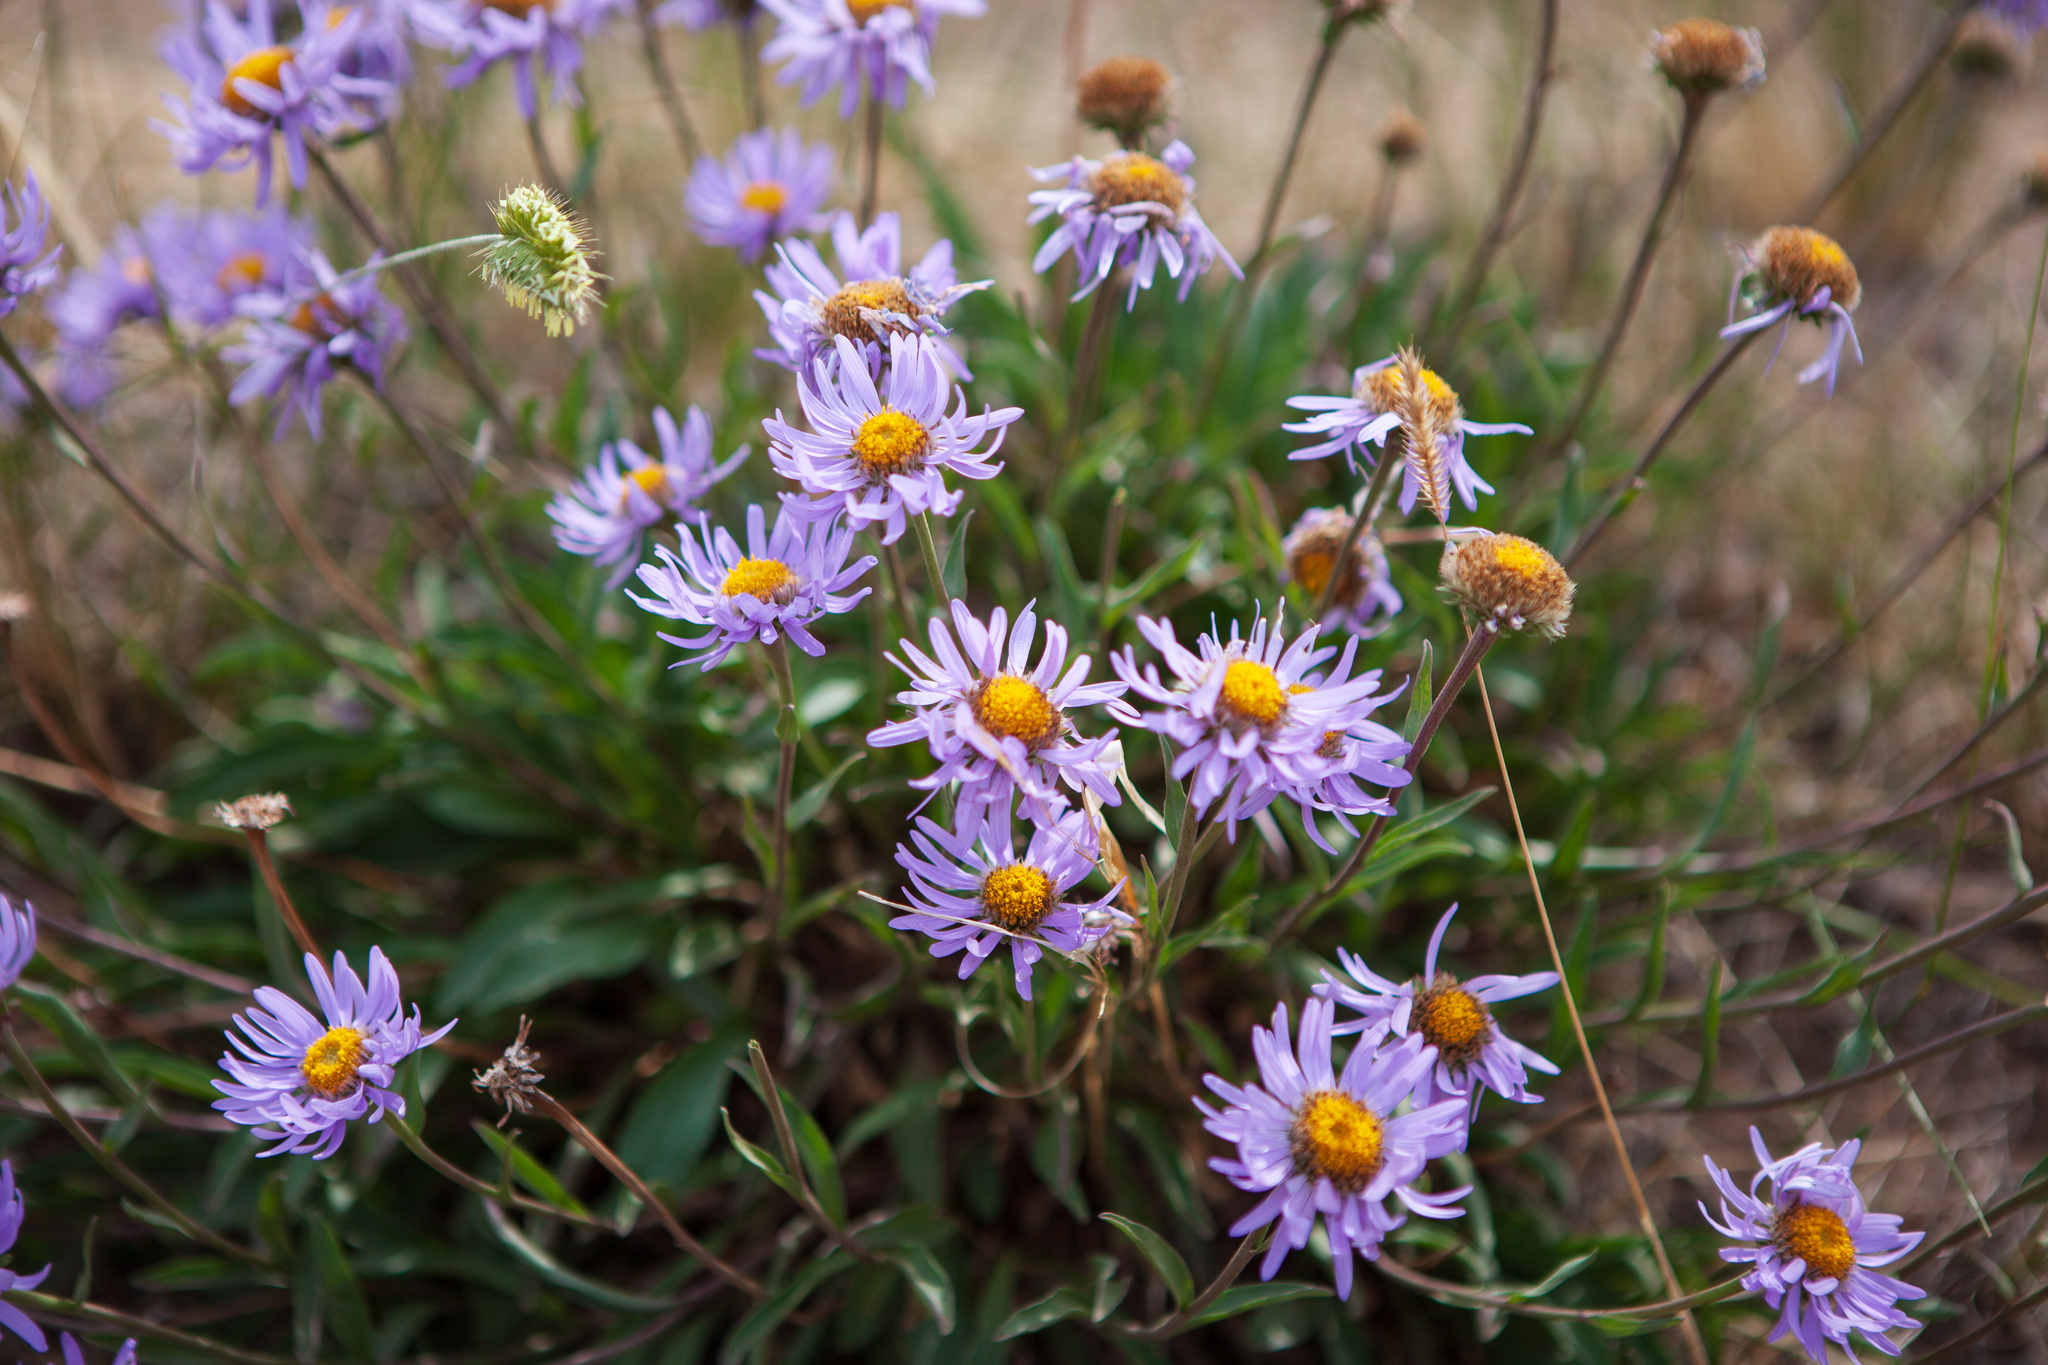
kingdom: Plantae
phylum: Tracheophyta
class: Magnoliopsida
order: Asterales
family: Asteraceae
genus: Aster
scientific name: Aster alpinus
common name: Alpine aster
